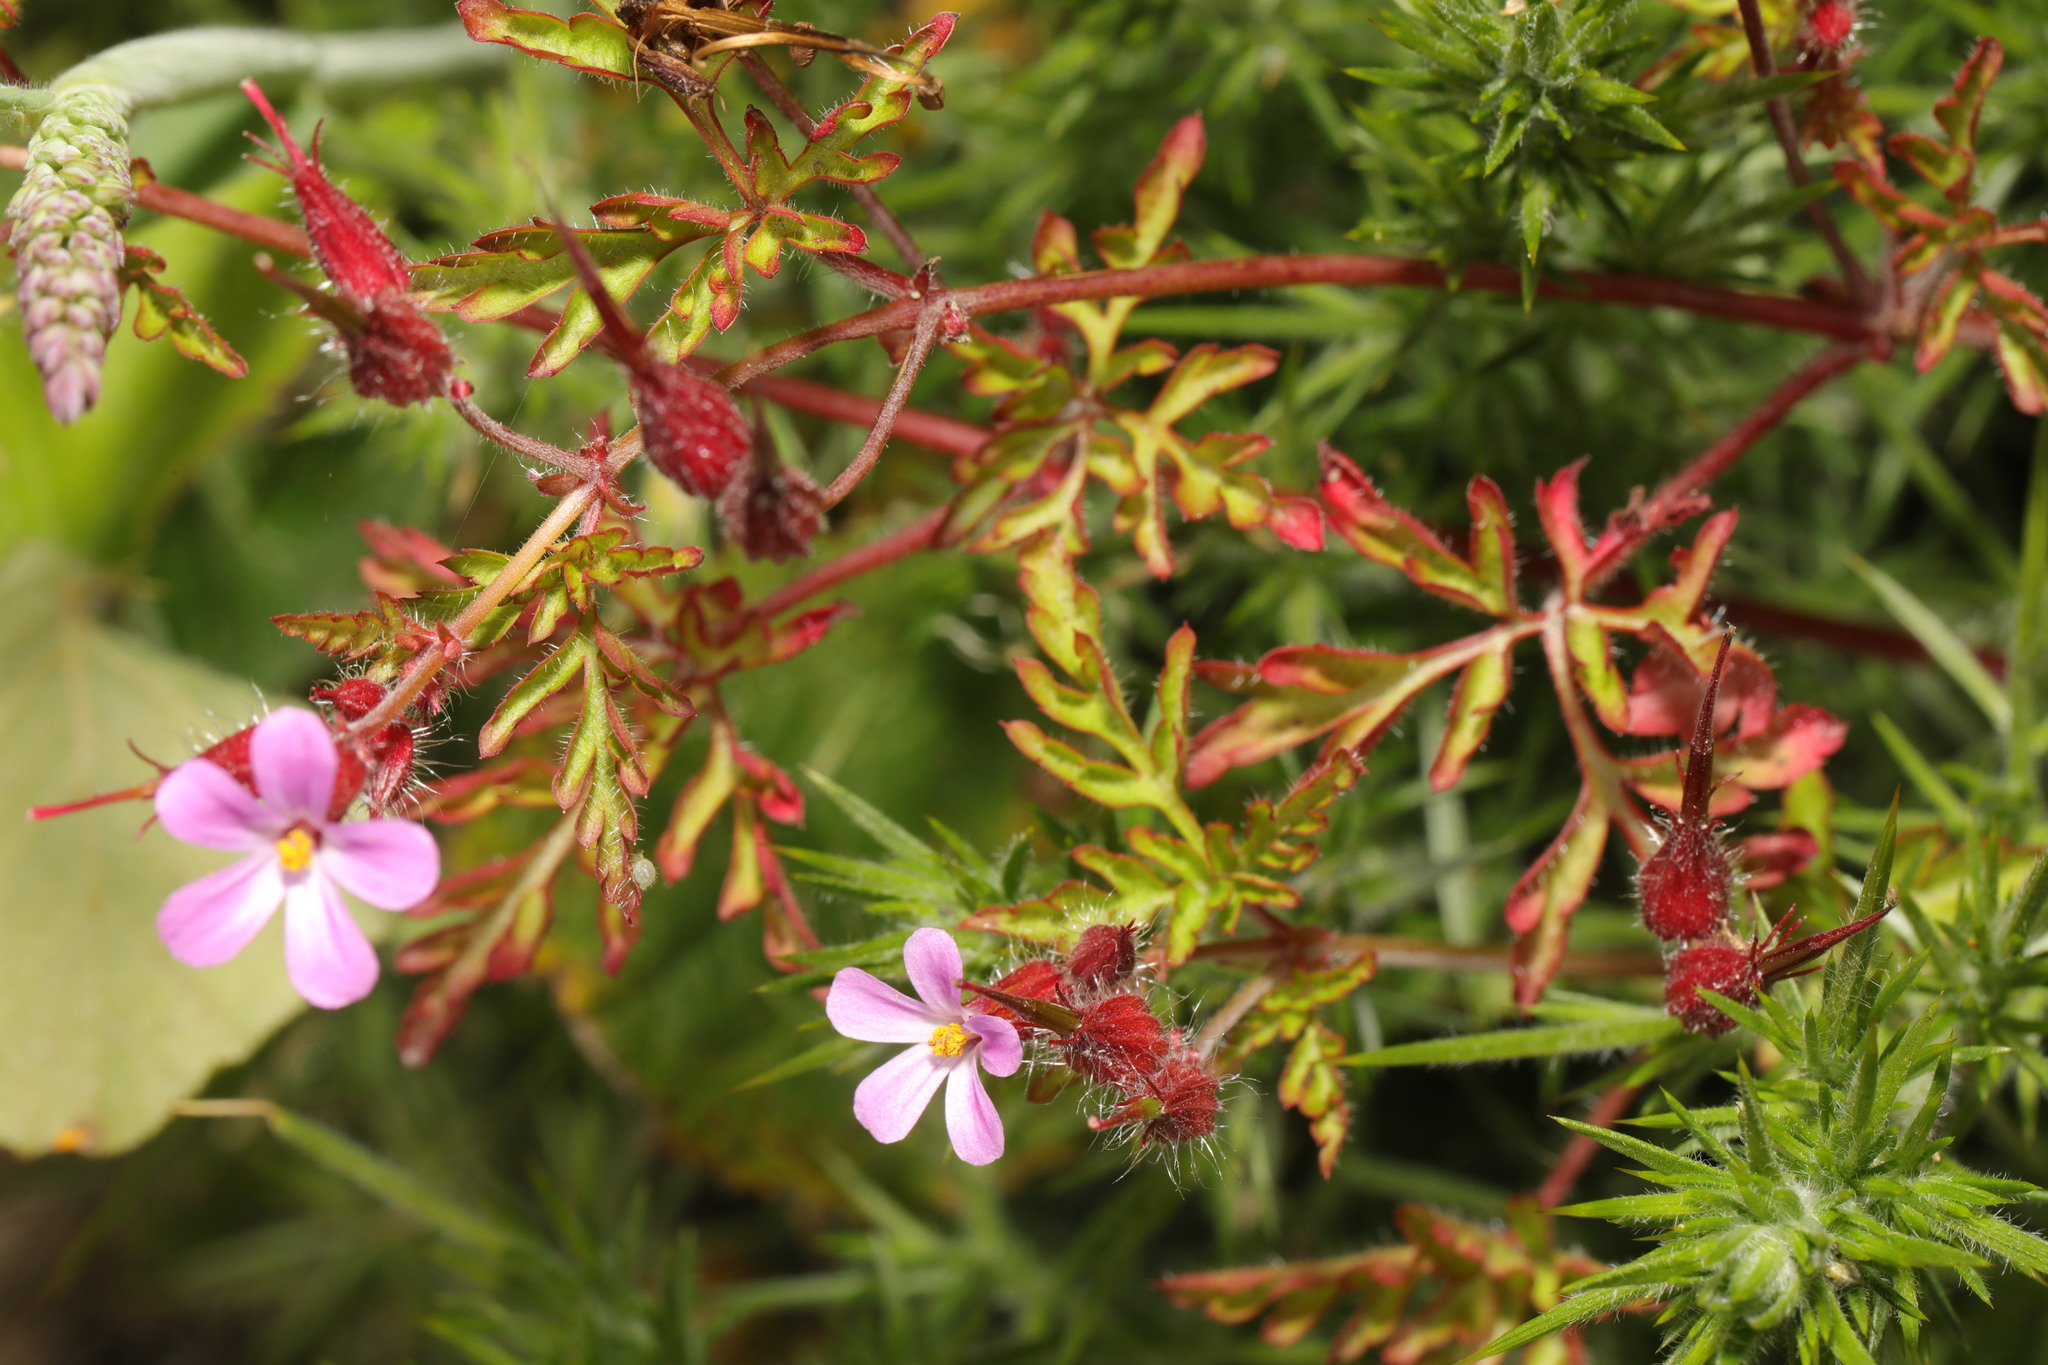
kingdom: Plantae
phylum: Tracheophyta
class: Magnoliopsida
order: Geraniales
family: Geraniaceae
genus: Geranium
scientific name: Geranium robertianum
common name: Herb-robert
